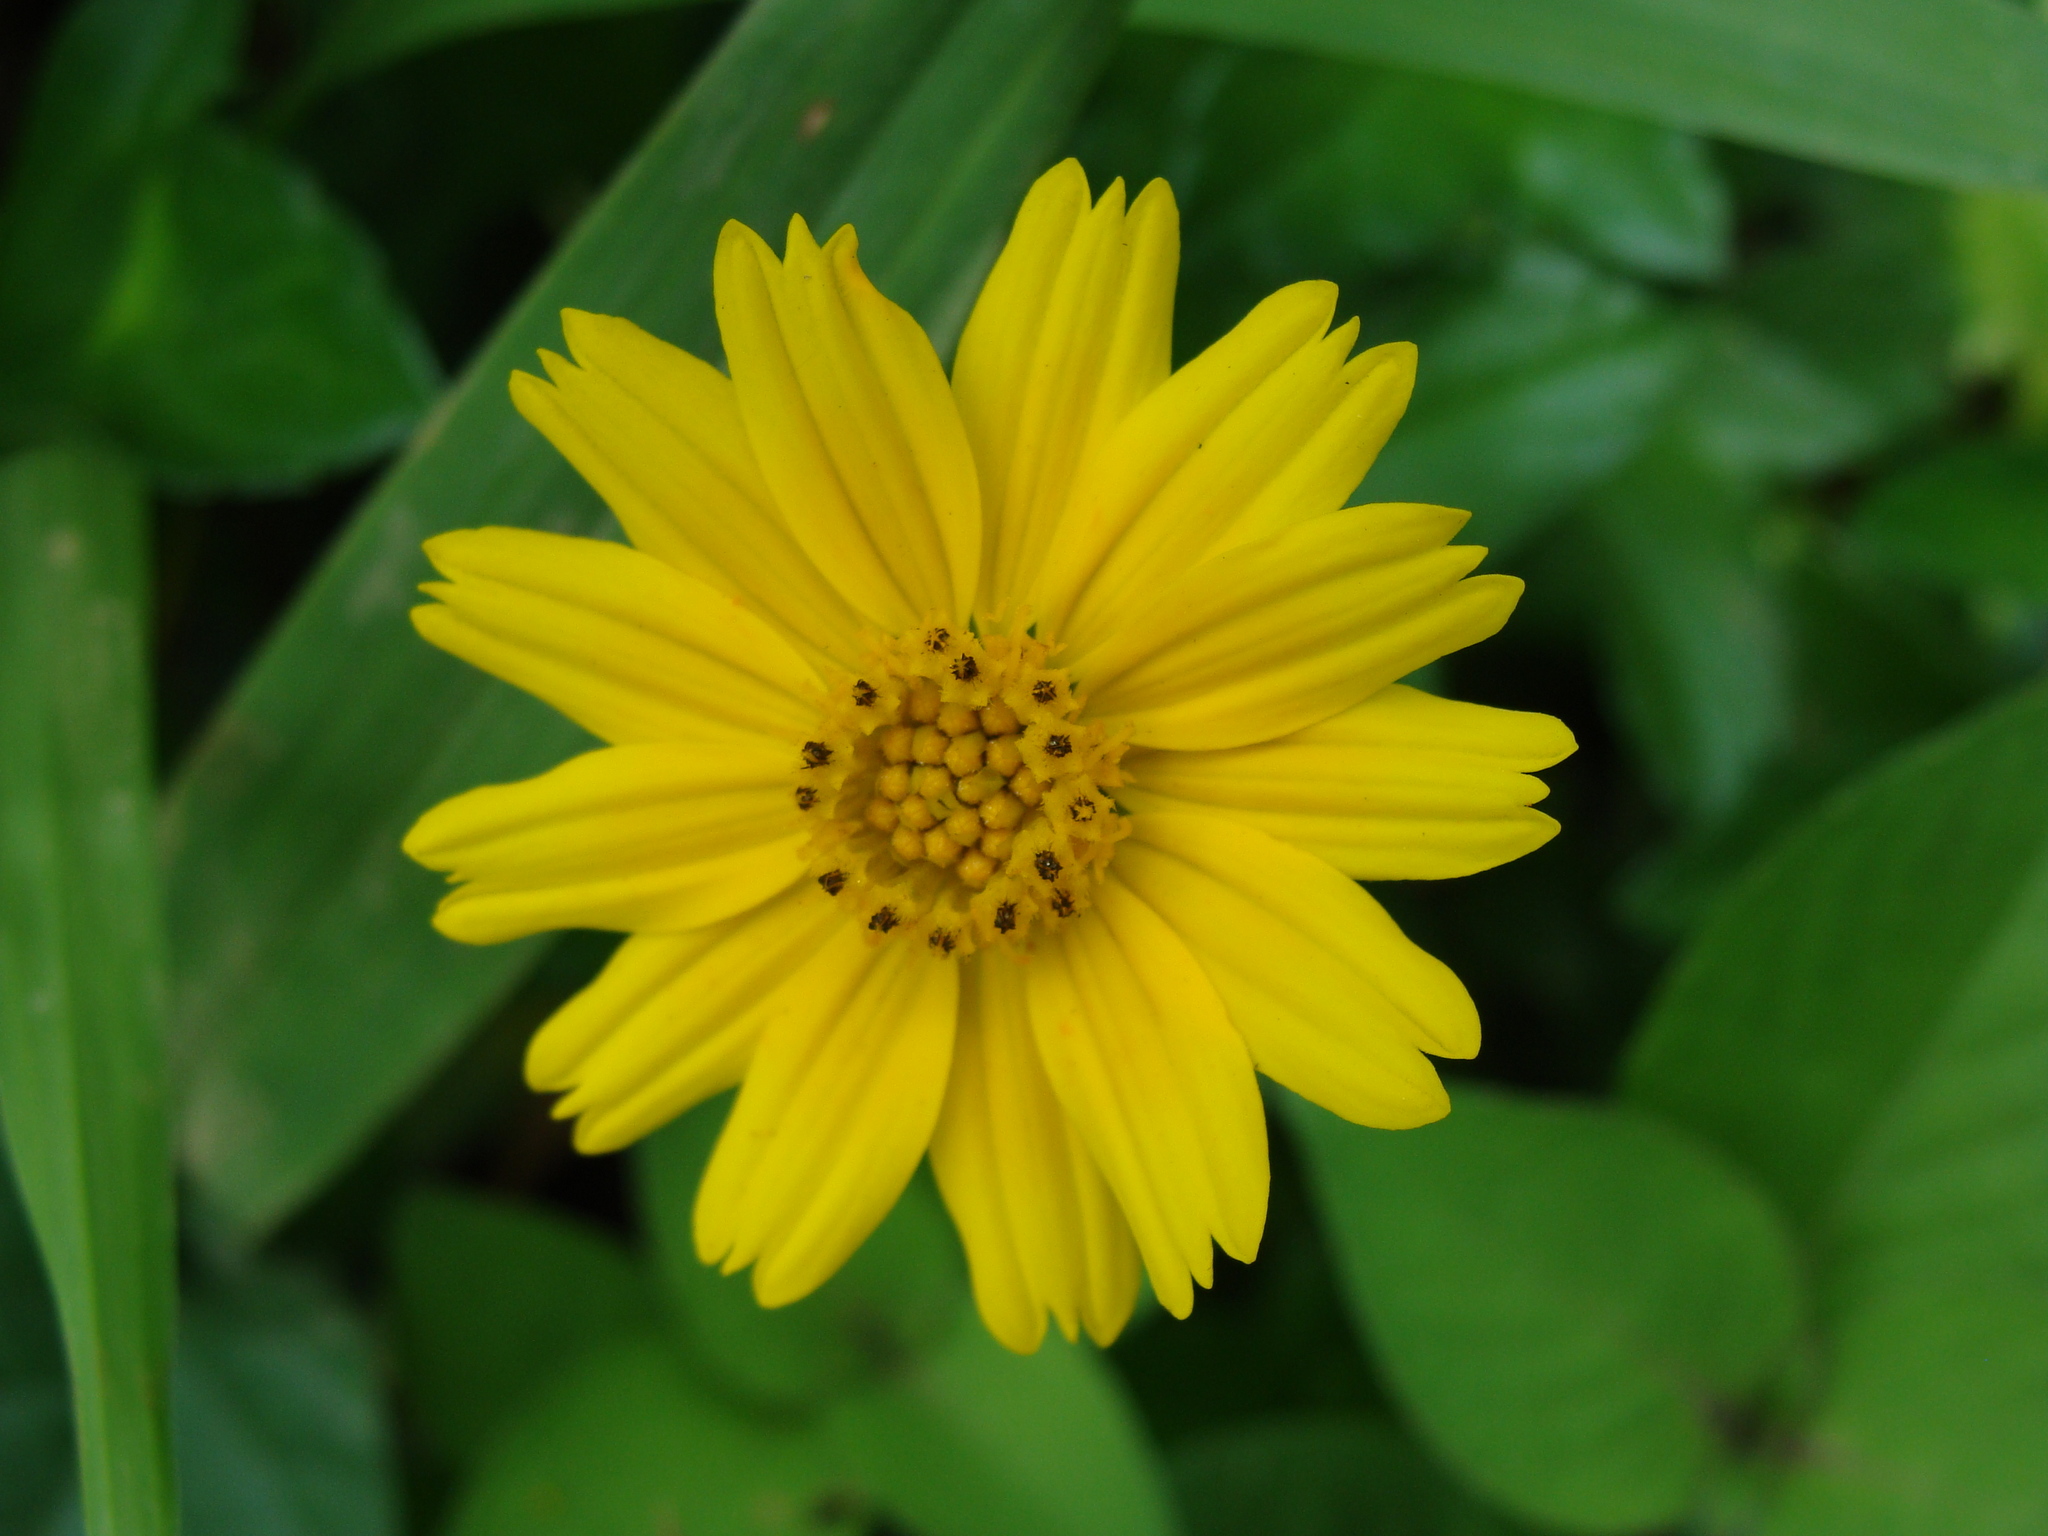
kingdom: Plantae
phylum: Tracheophyta
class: Magnoliopsida
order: Asterales
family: Asteraceae
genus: Sphagneticola
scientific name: Sphagneticola trilobata
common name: Bay biscayne creeping-oxeye
